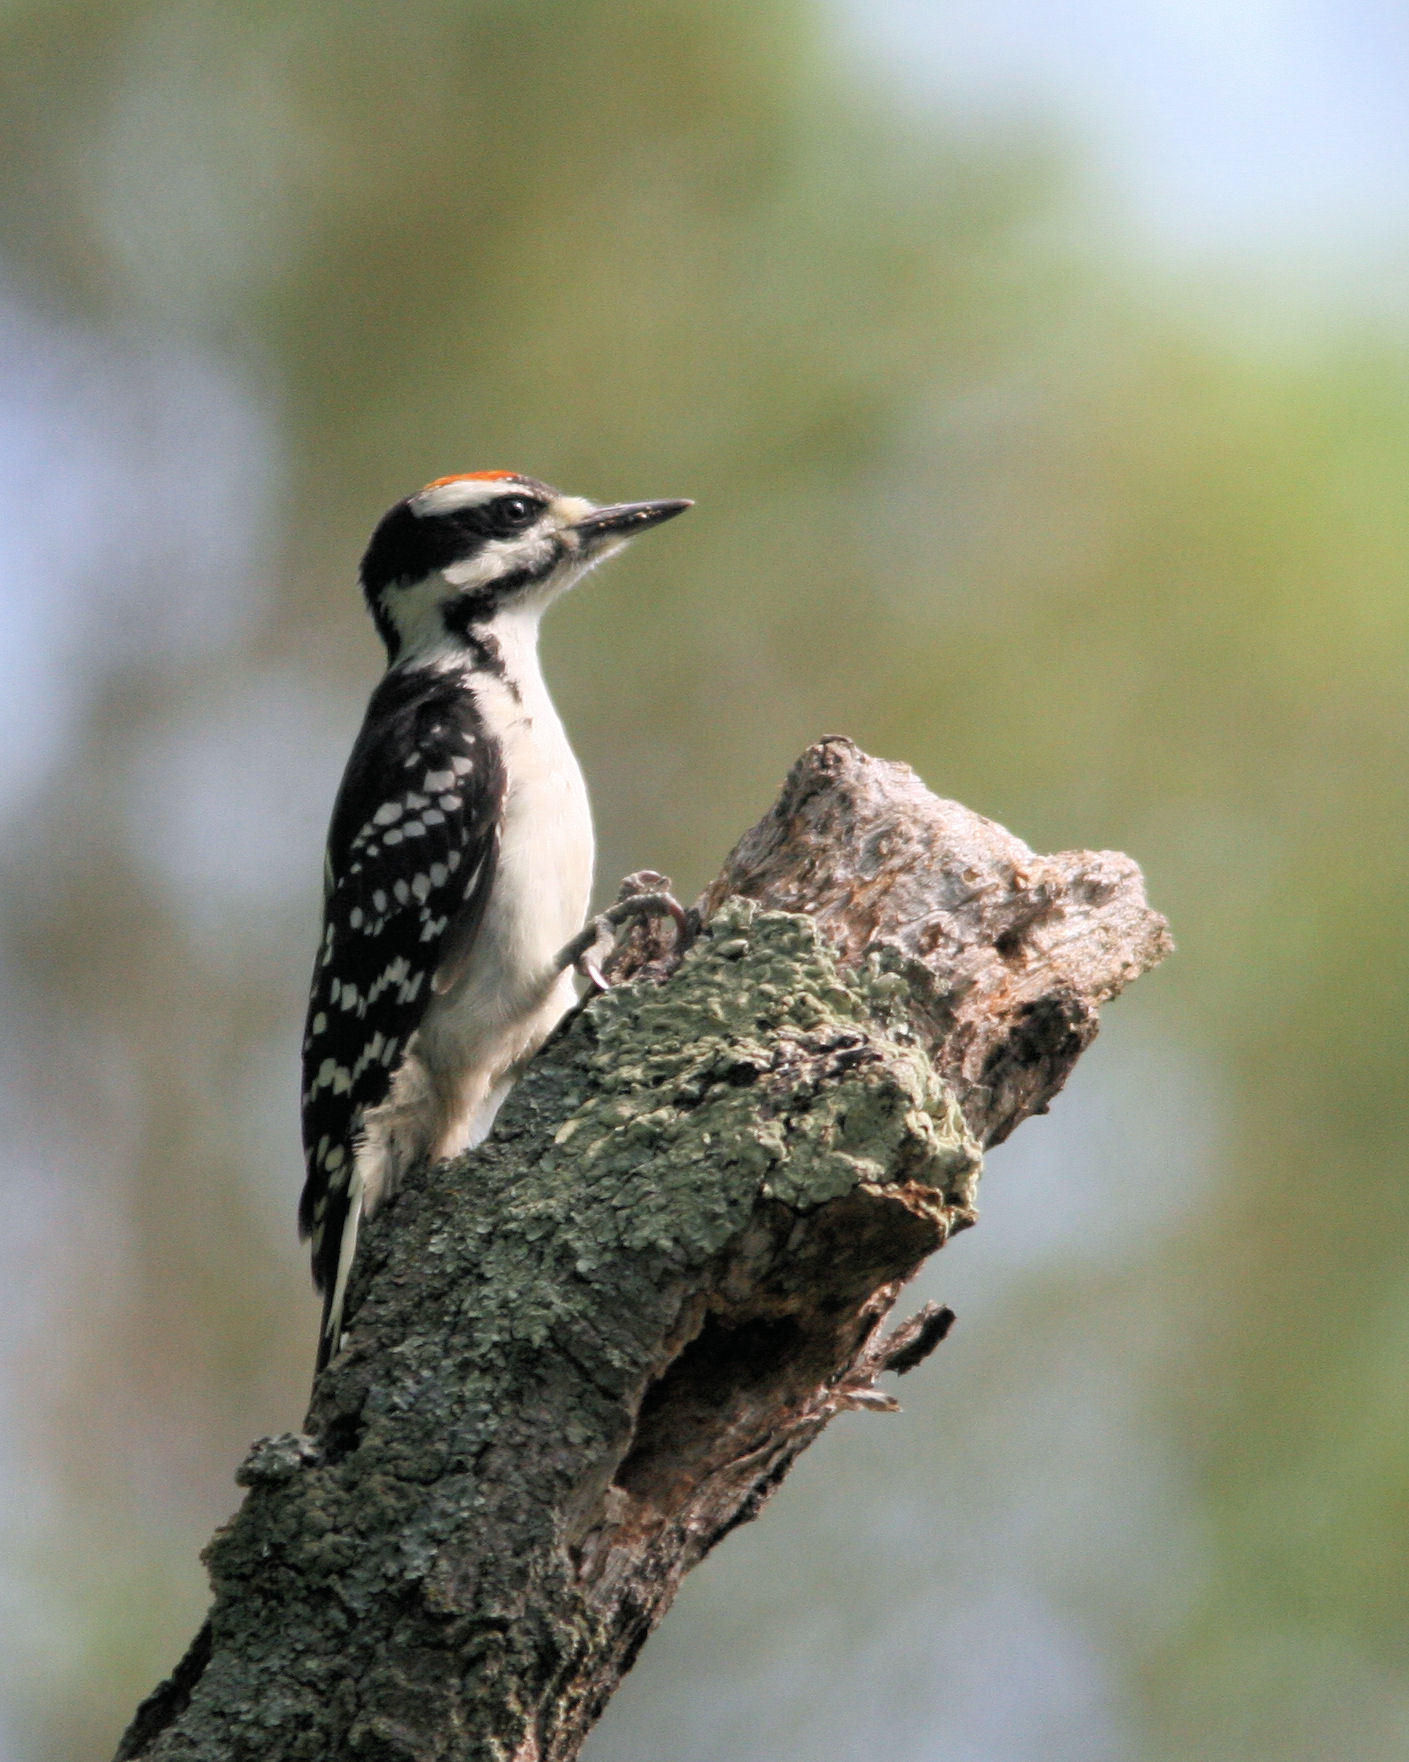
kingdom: Animalia
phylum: Chordata
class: Aves
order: Piciformes
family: Picidae
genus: Leuconotopicus
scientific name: Leuconotopicus villosus
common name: Hairy woodpecker
